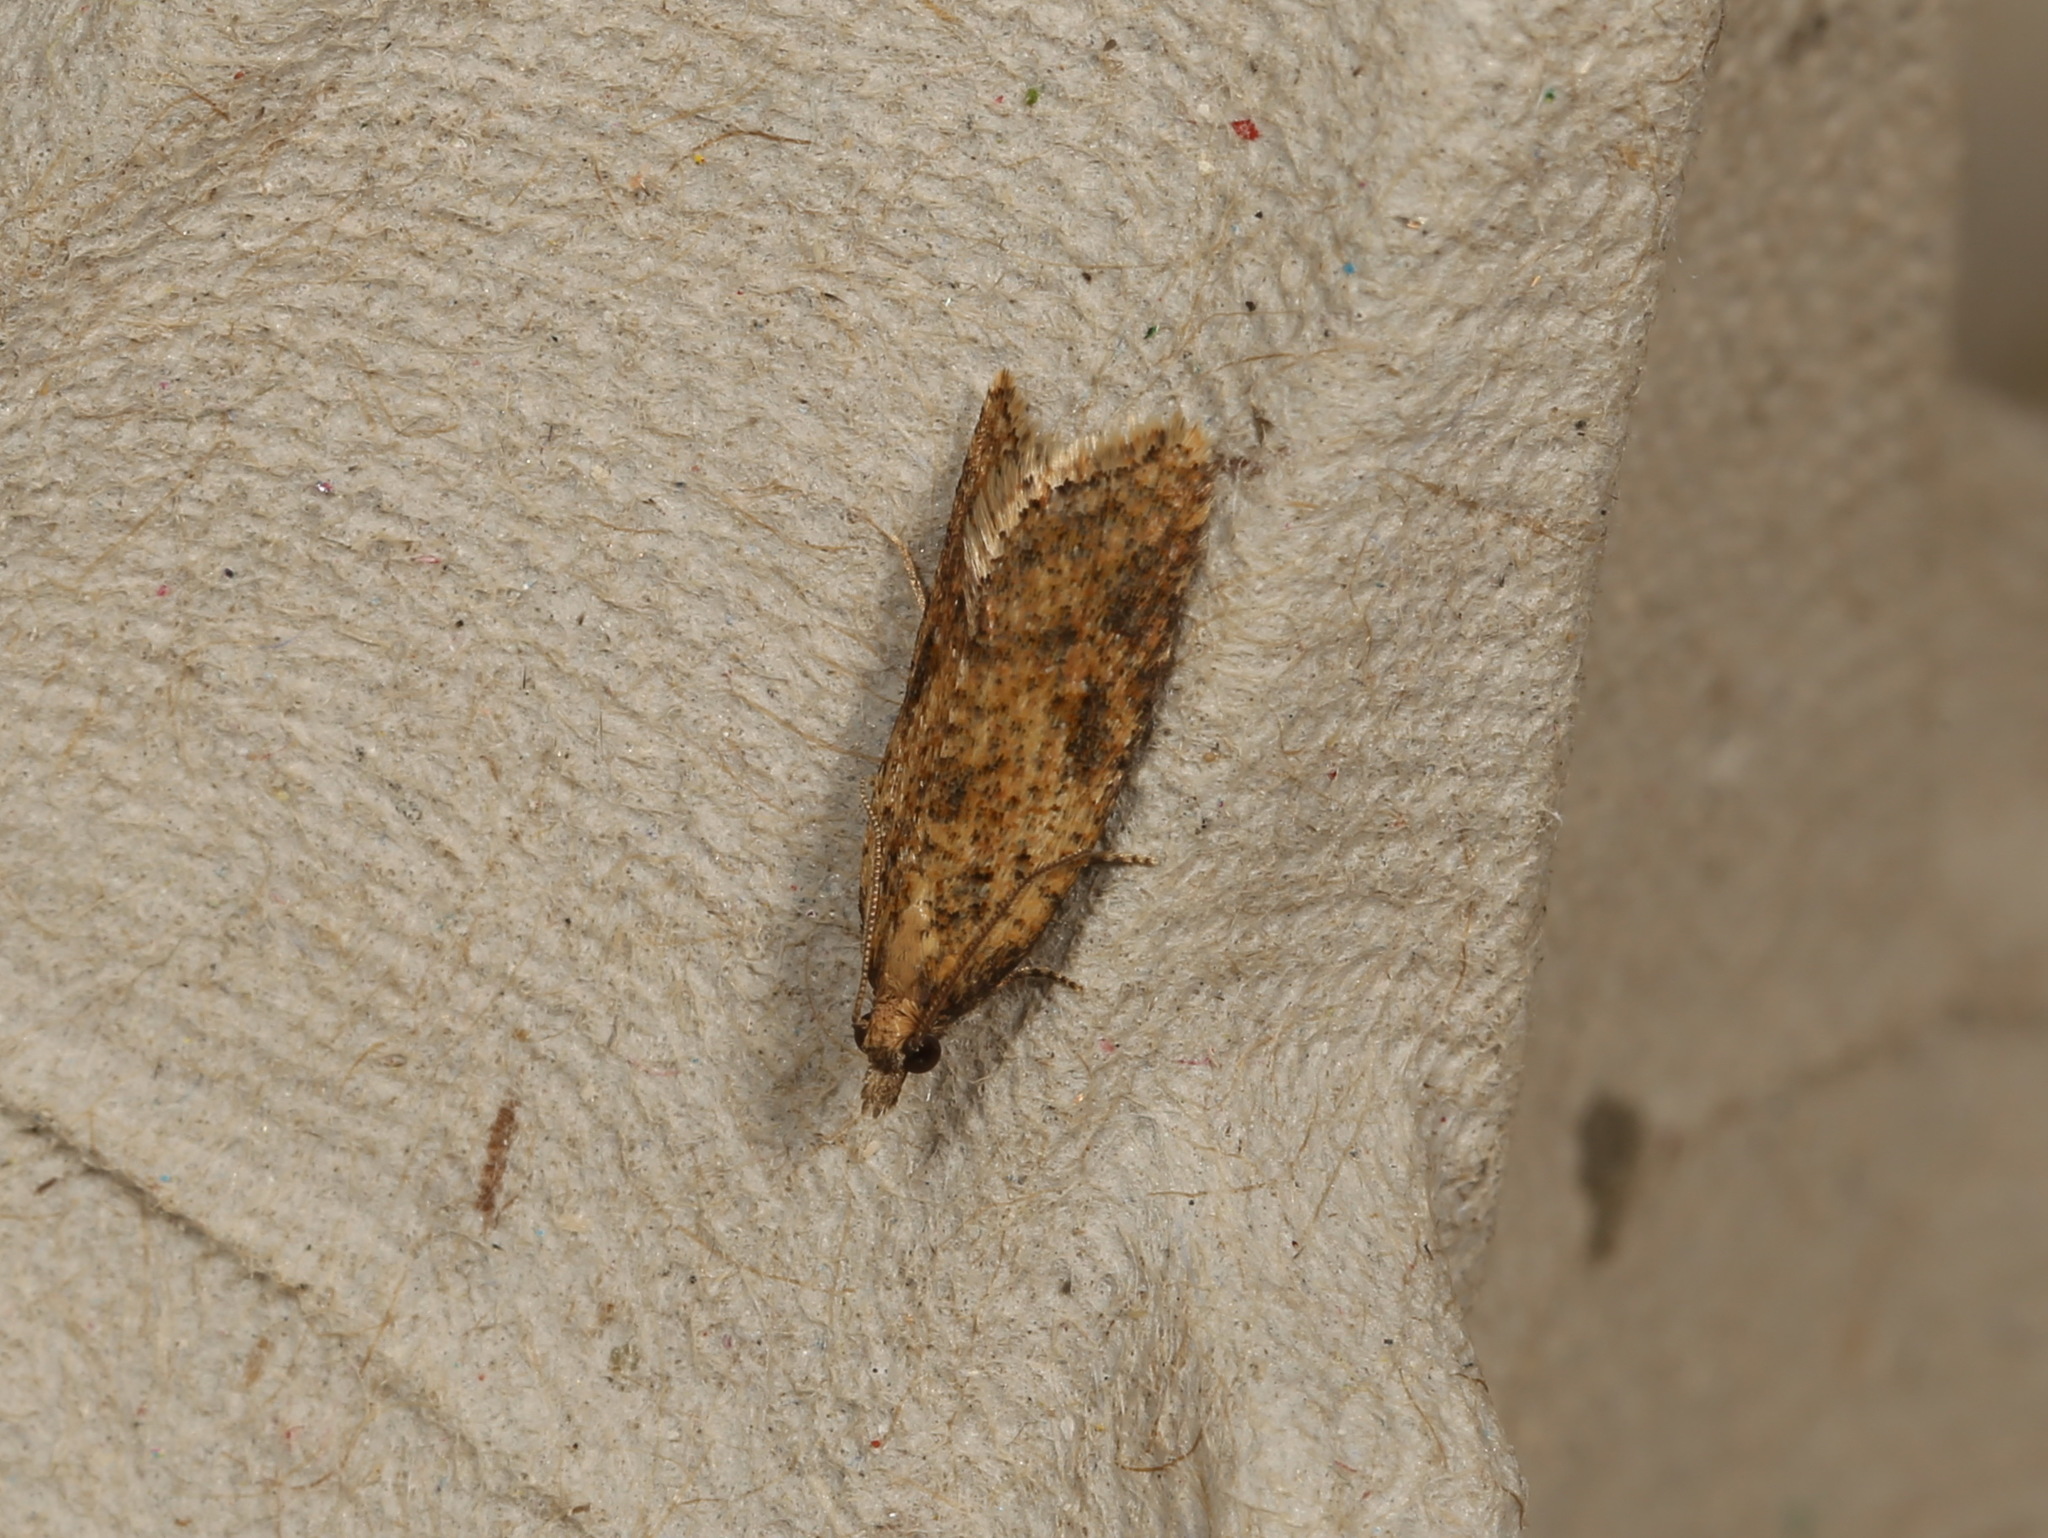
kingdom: Animalia
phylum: Arthropoda
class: Insecta
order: Lepidoptera
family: Tortricidae
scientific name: Tortricidae
